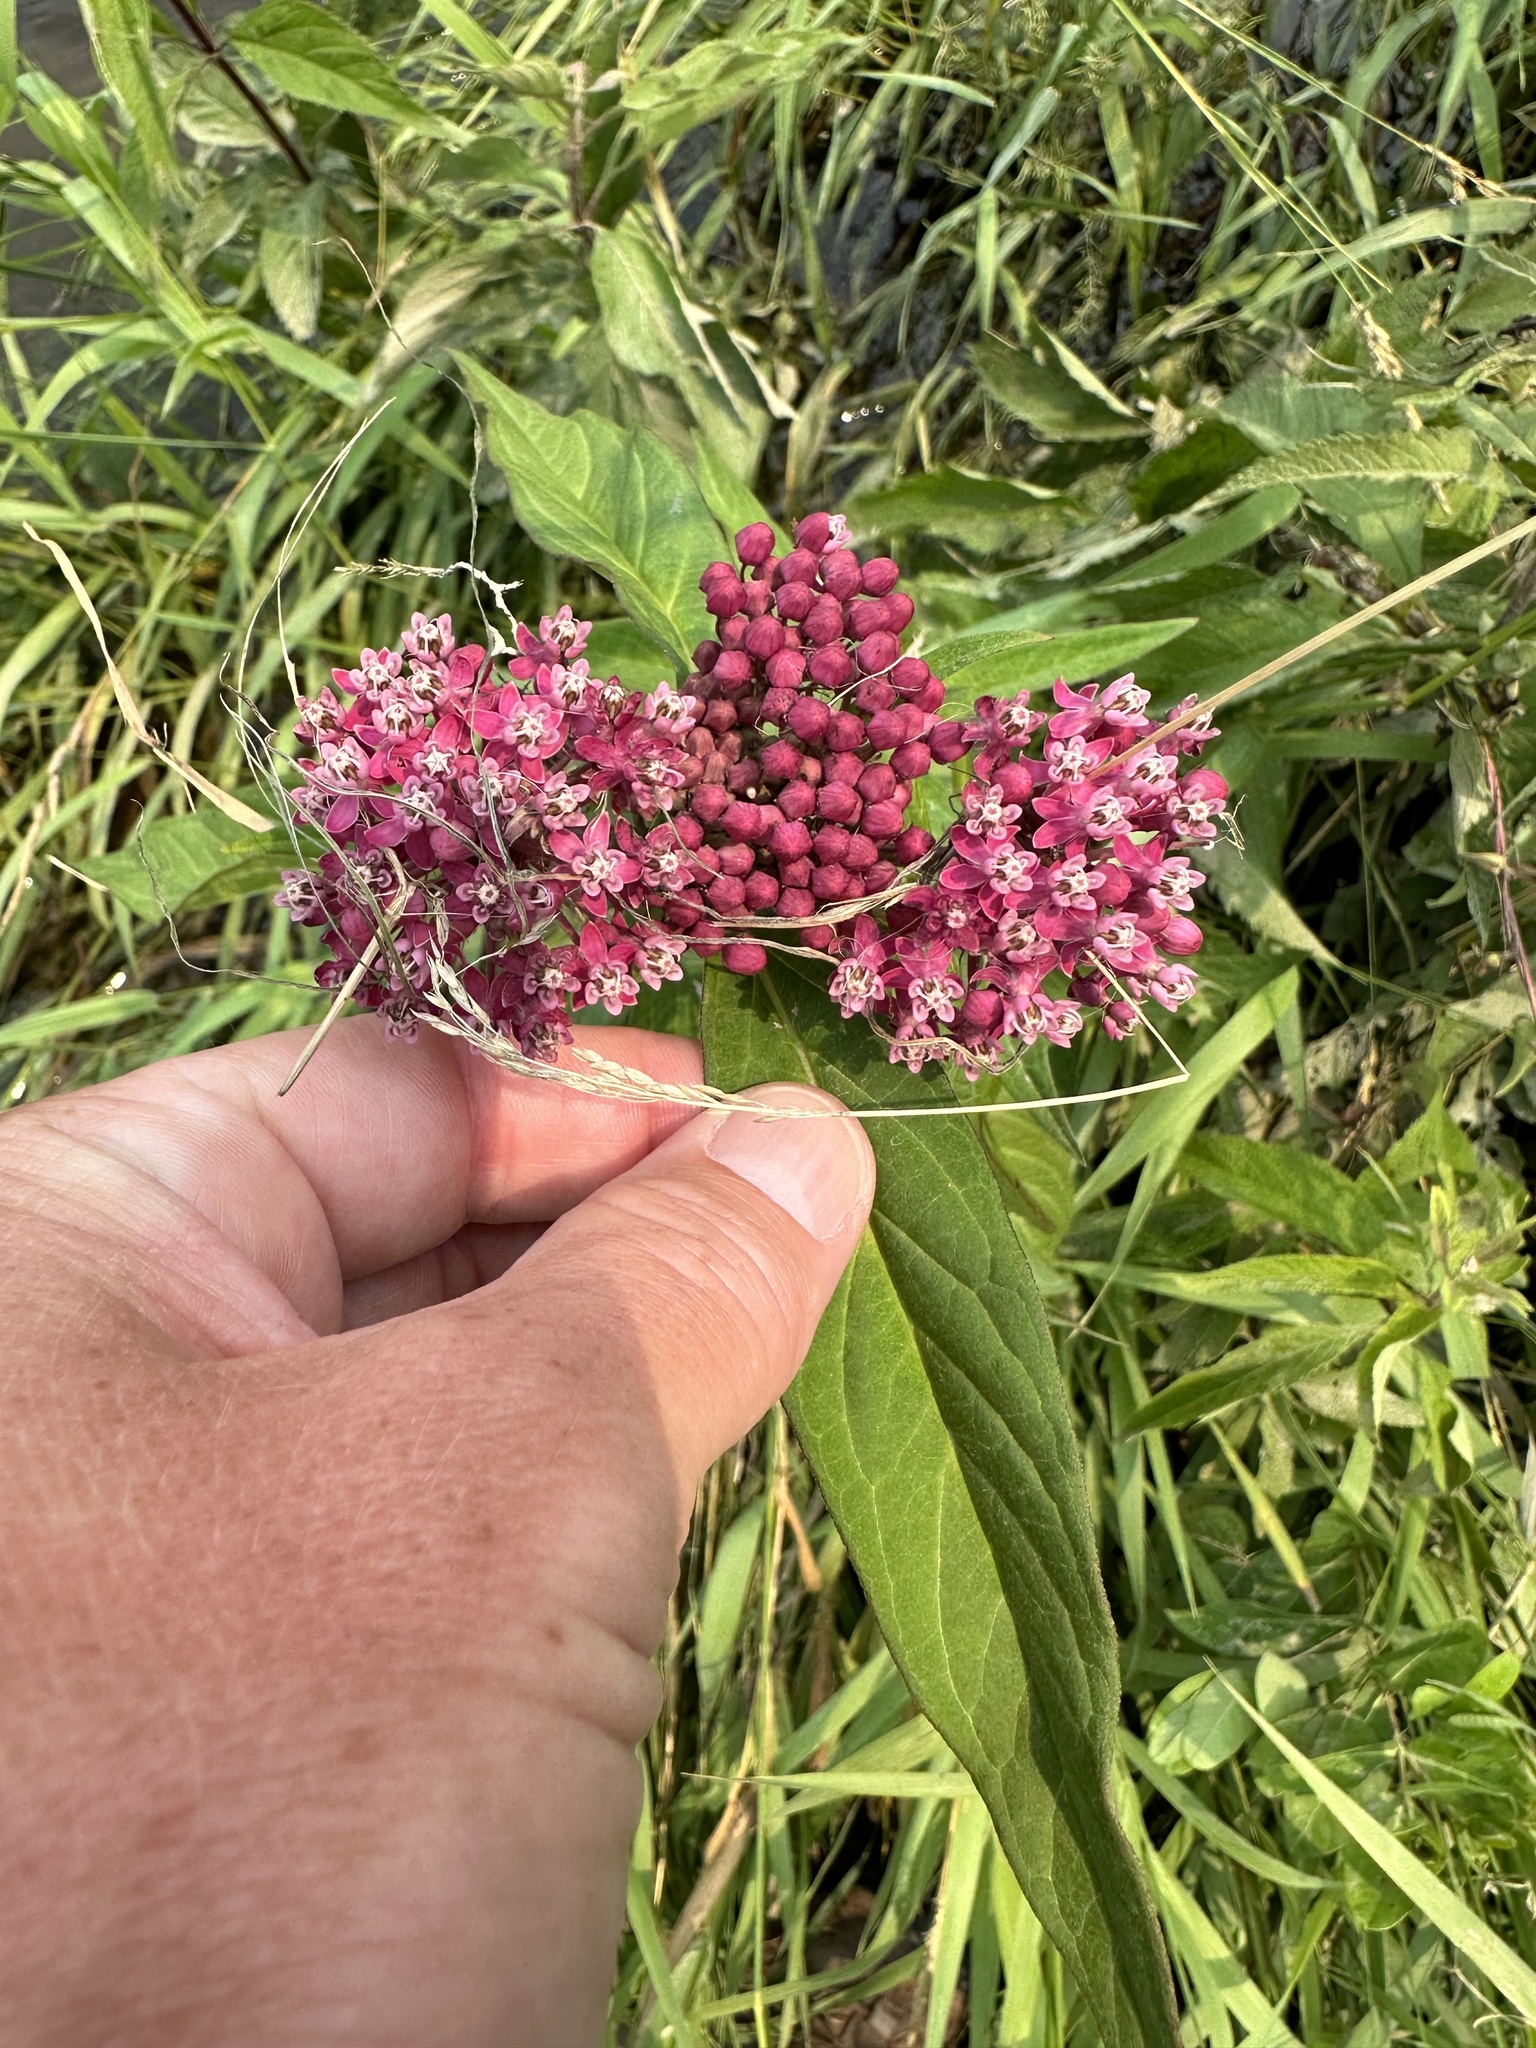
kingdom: Plantae
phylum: Tracheophyta
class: Magnoliopsida
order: Gentianales
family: Apocynaceae
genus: Asclepias
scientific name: Asclepias incarnata
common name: Swamp milkweed
